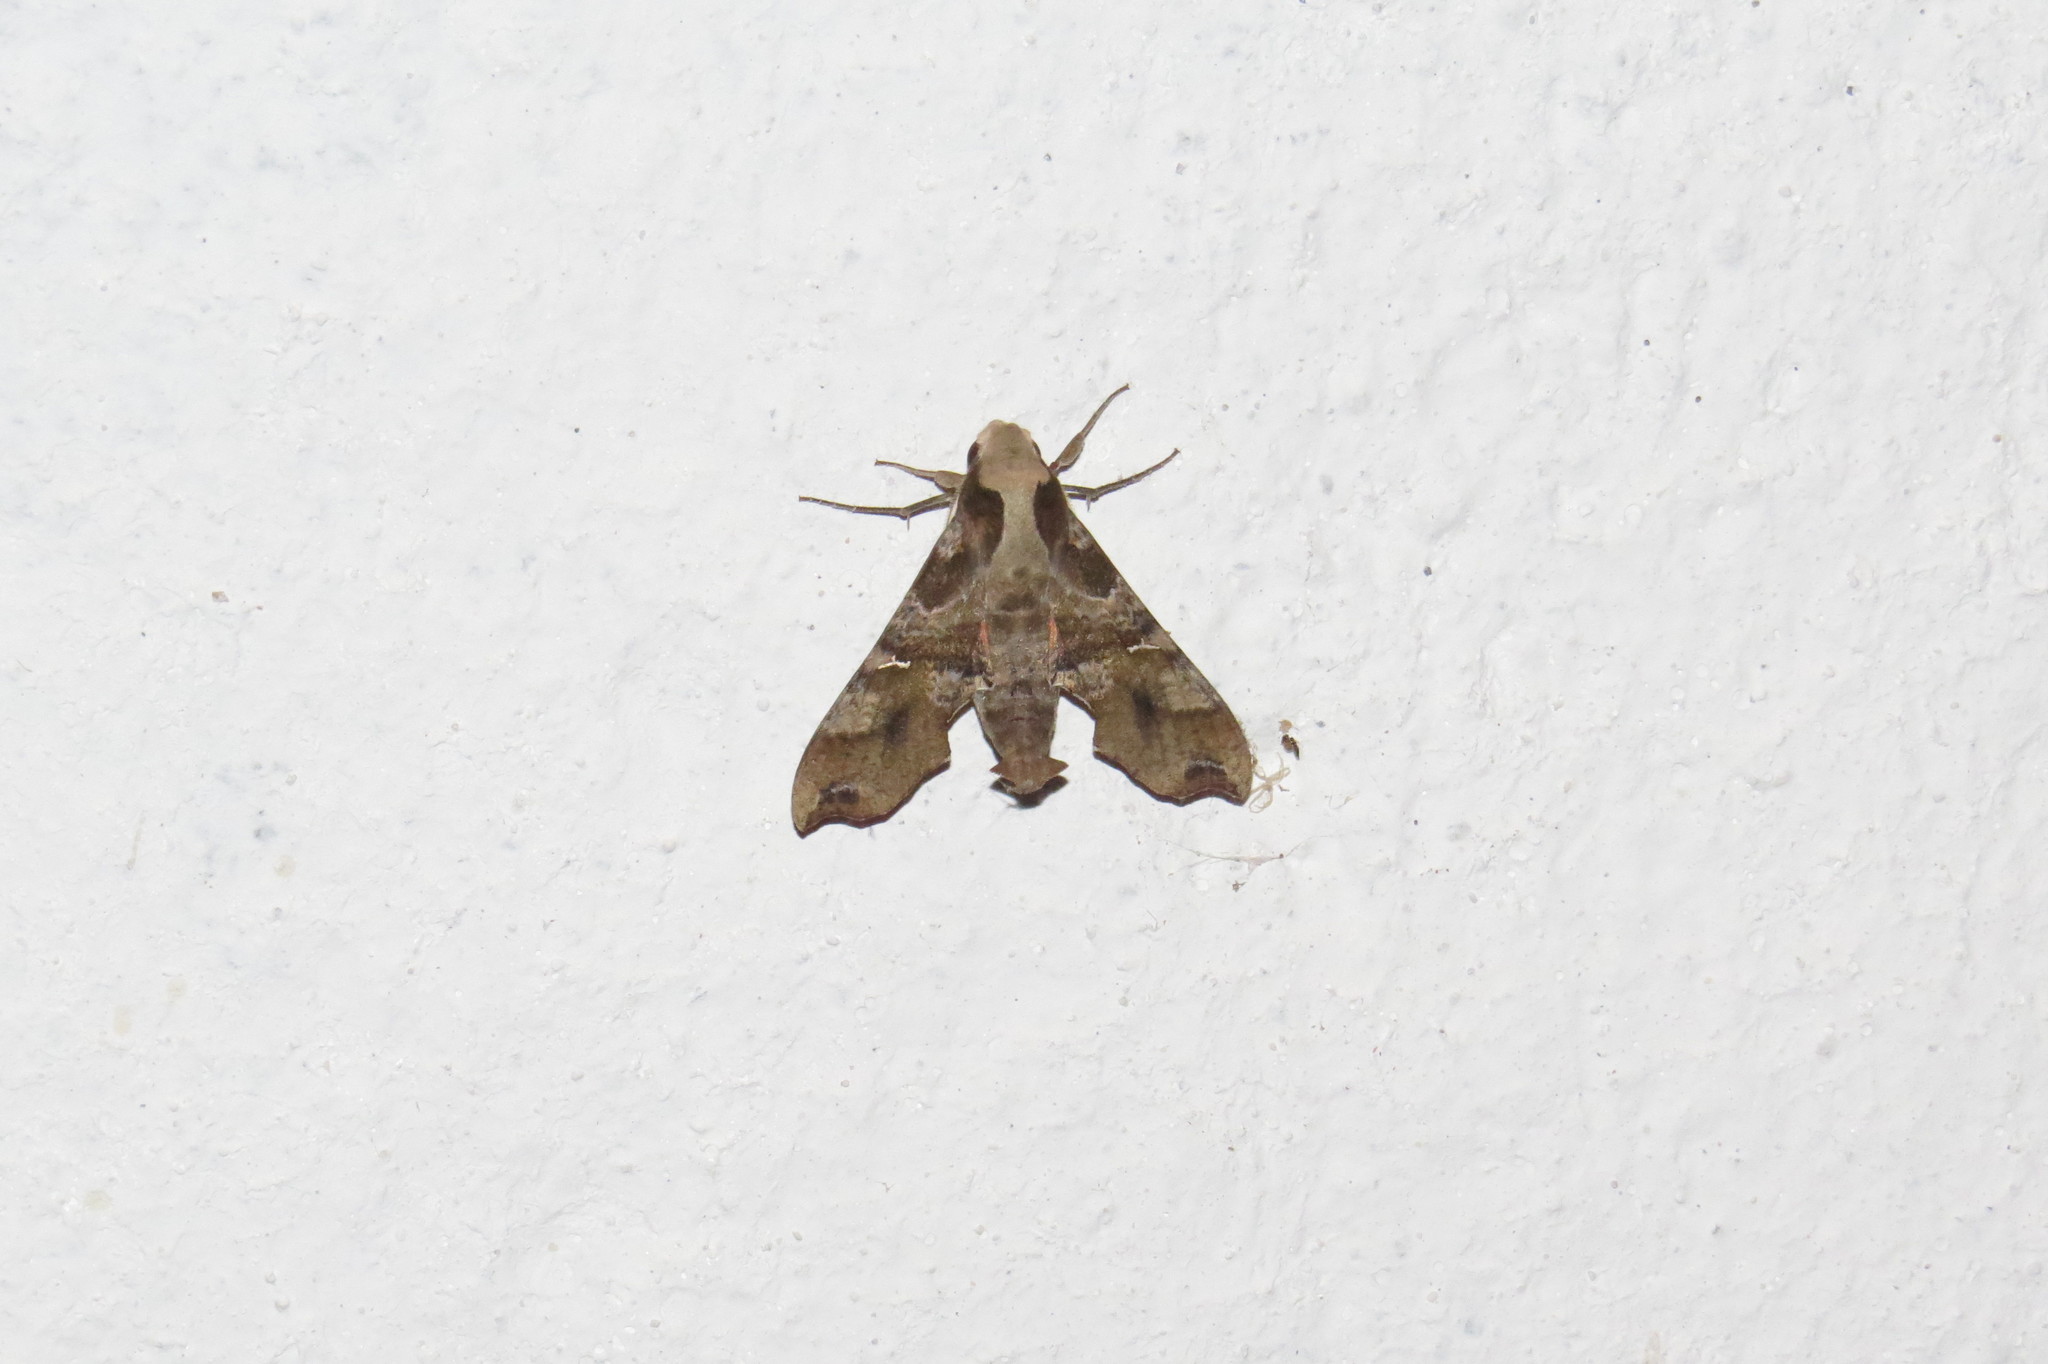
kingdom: Animalia
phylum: Arthropoda
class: Insecta
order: Lepidoptera
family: Sphingidae
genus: Callionima
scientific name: Callionima grisescens
